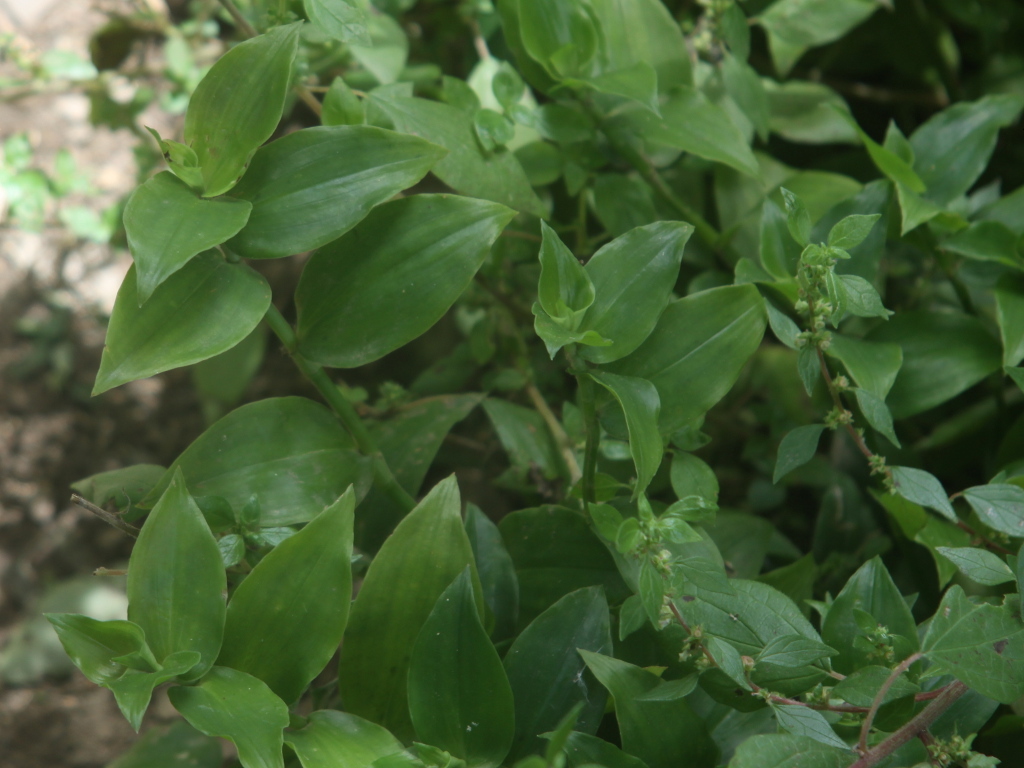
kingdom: Plantae
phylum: Tracheophyta
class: Liliopsida
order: Commelinales
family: Commelinaceae
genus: Tradescantia
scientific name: Tradescantia fluminensis
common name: Wandering-jew
